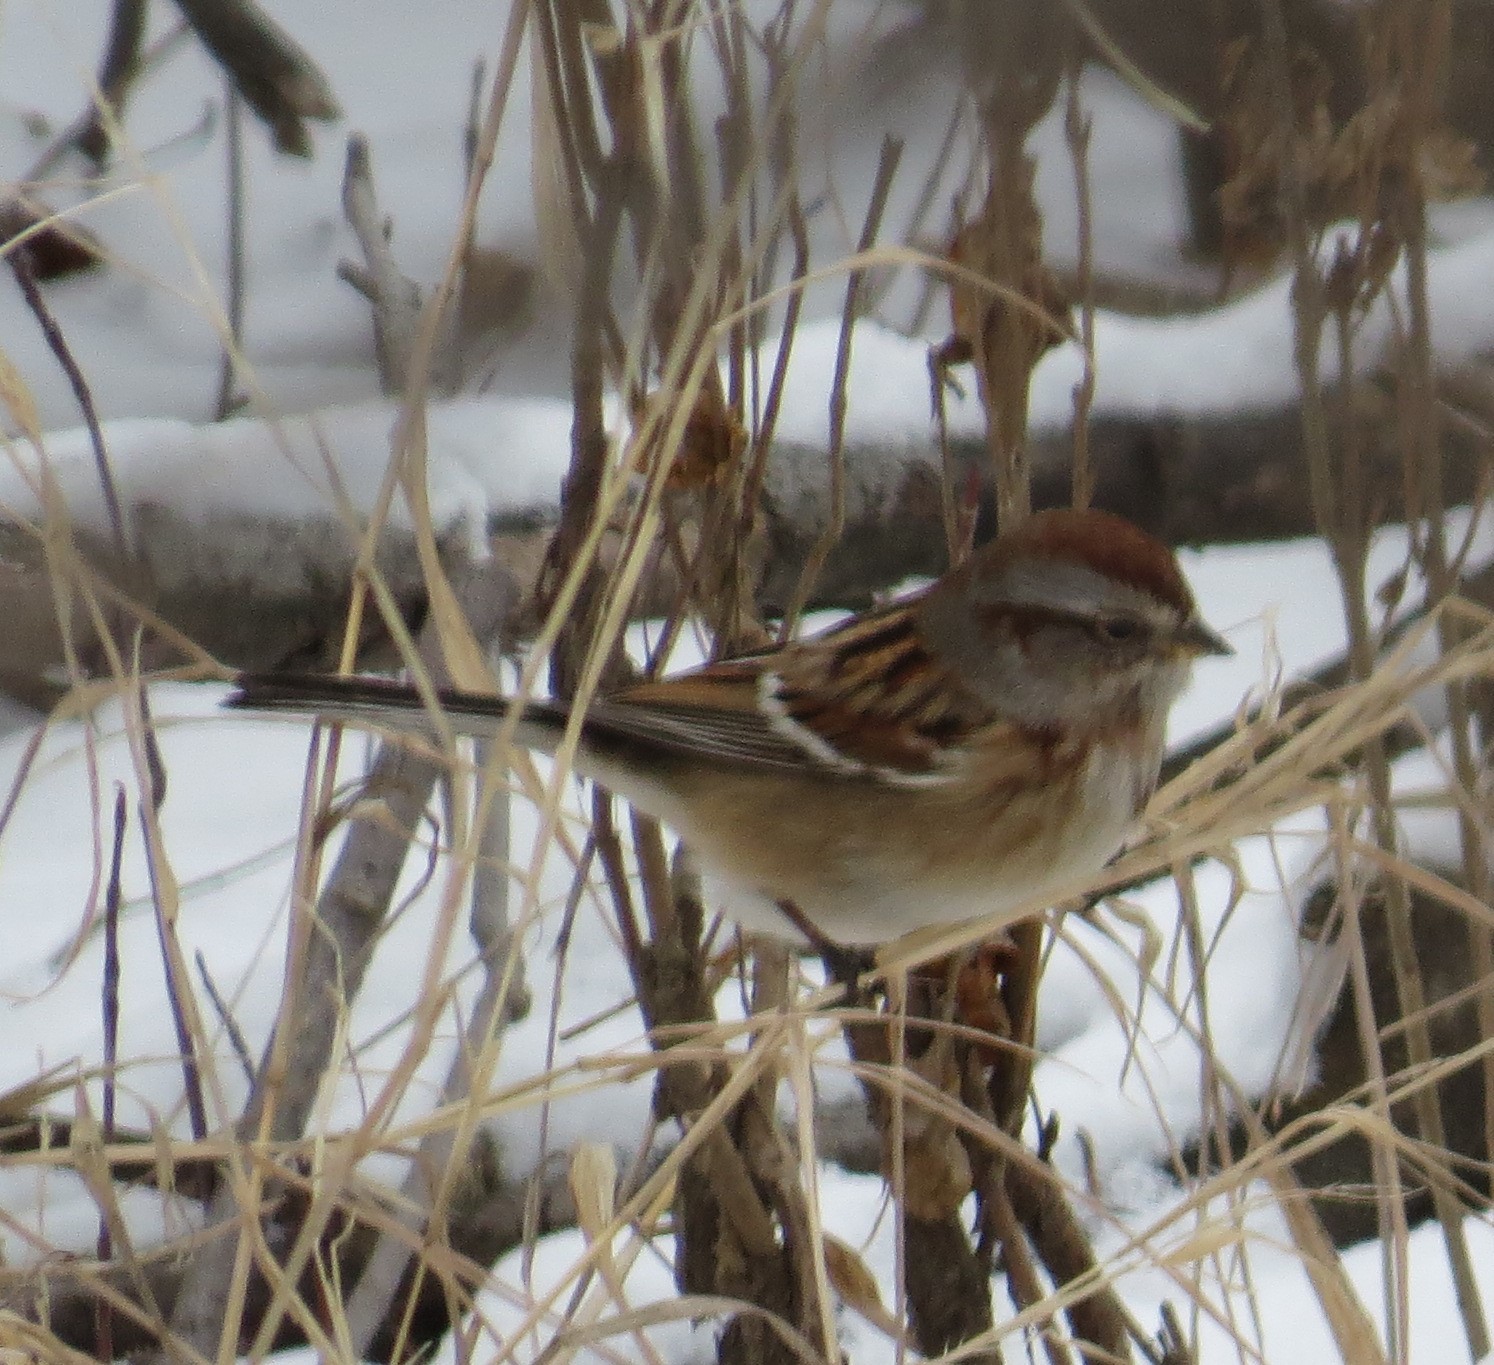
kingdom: Animalia
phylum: Chordata
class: Aves
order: Passeriformes
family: Passerellidae
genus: Spizelloides
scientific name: Spizelloides arborea
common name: American tree sparrow
